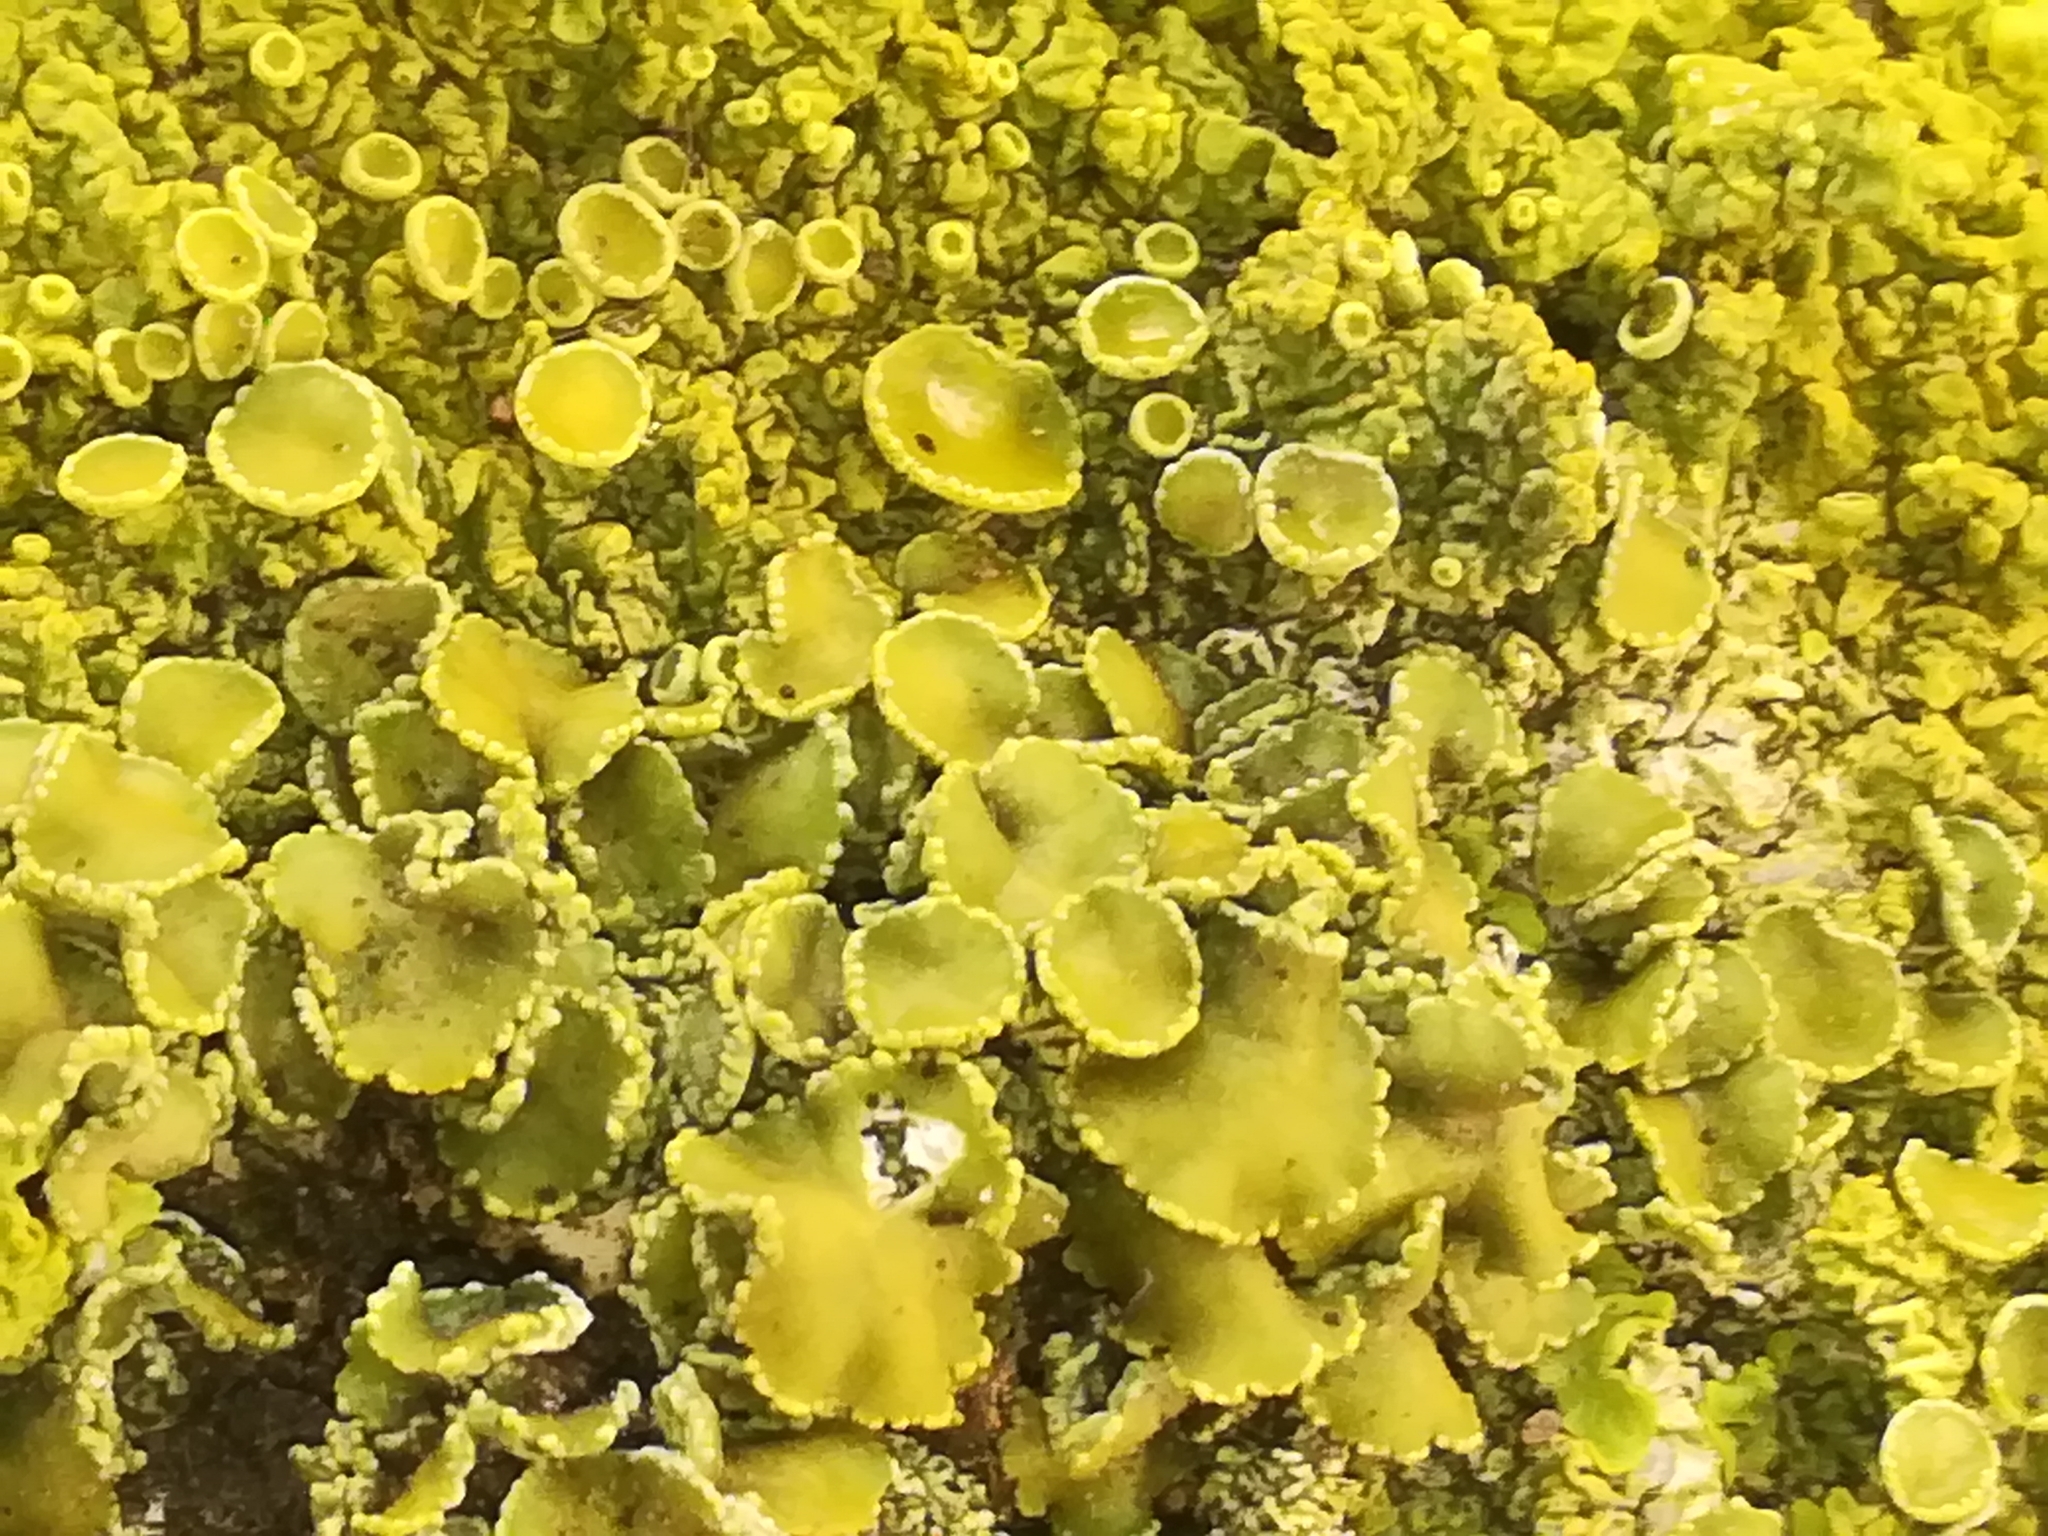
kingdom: Fungi
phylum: Ascomycota
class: Lecanoromycetes
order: Teloschistales
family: Teloschistaceae
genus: Xanthoria
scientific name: Xanthoria calcicola
